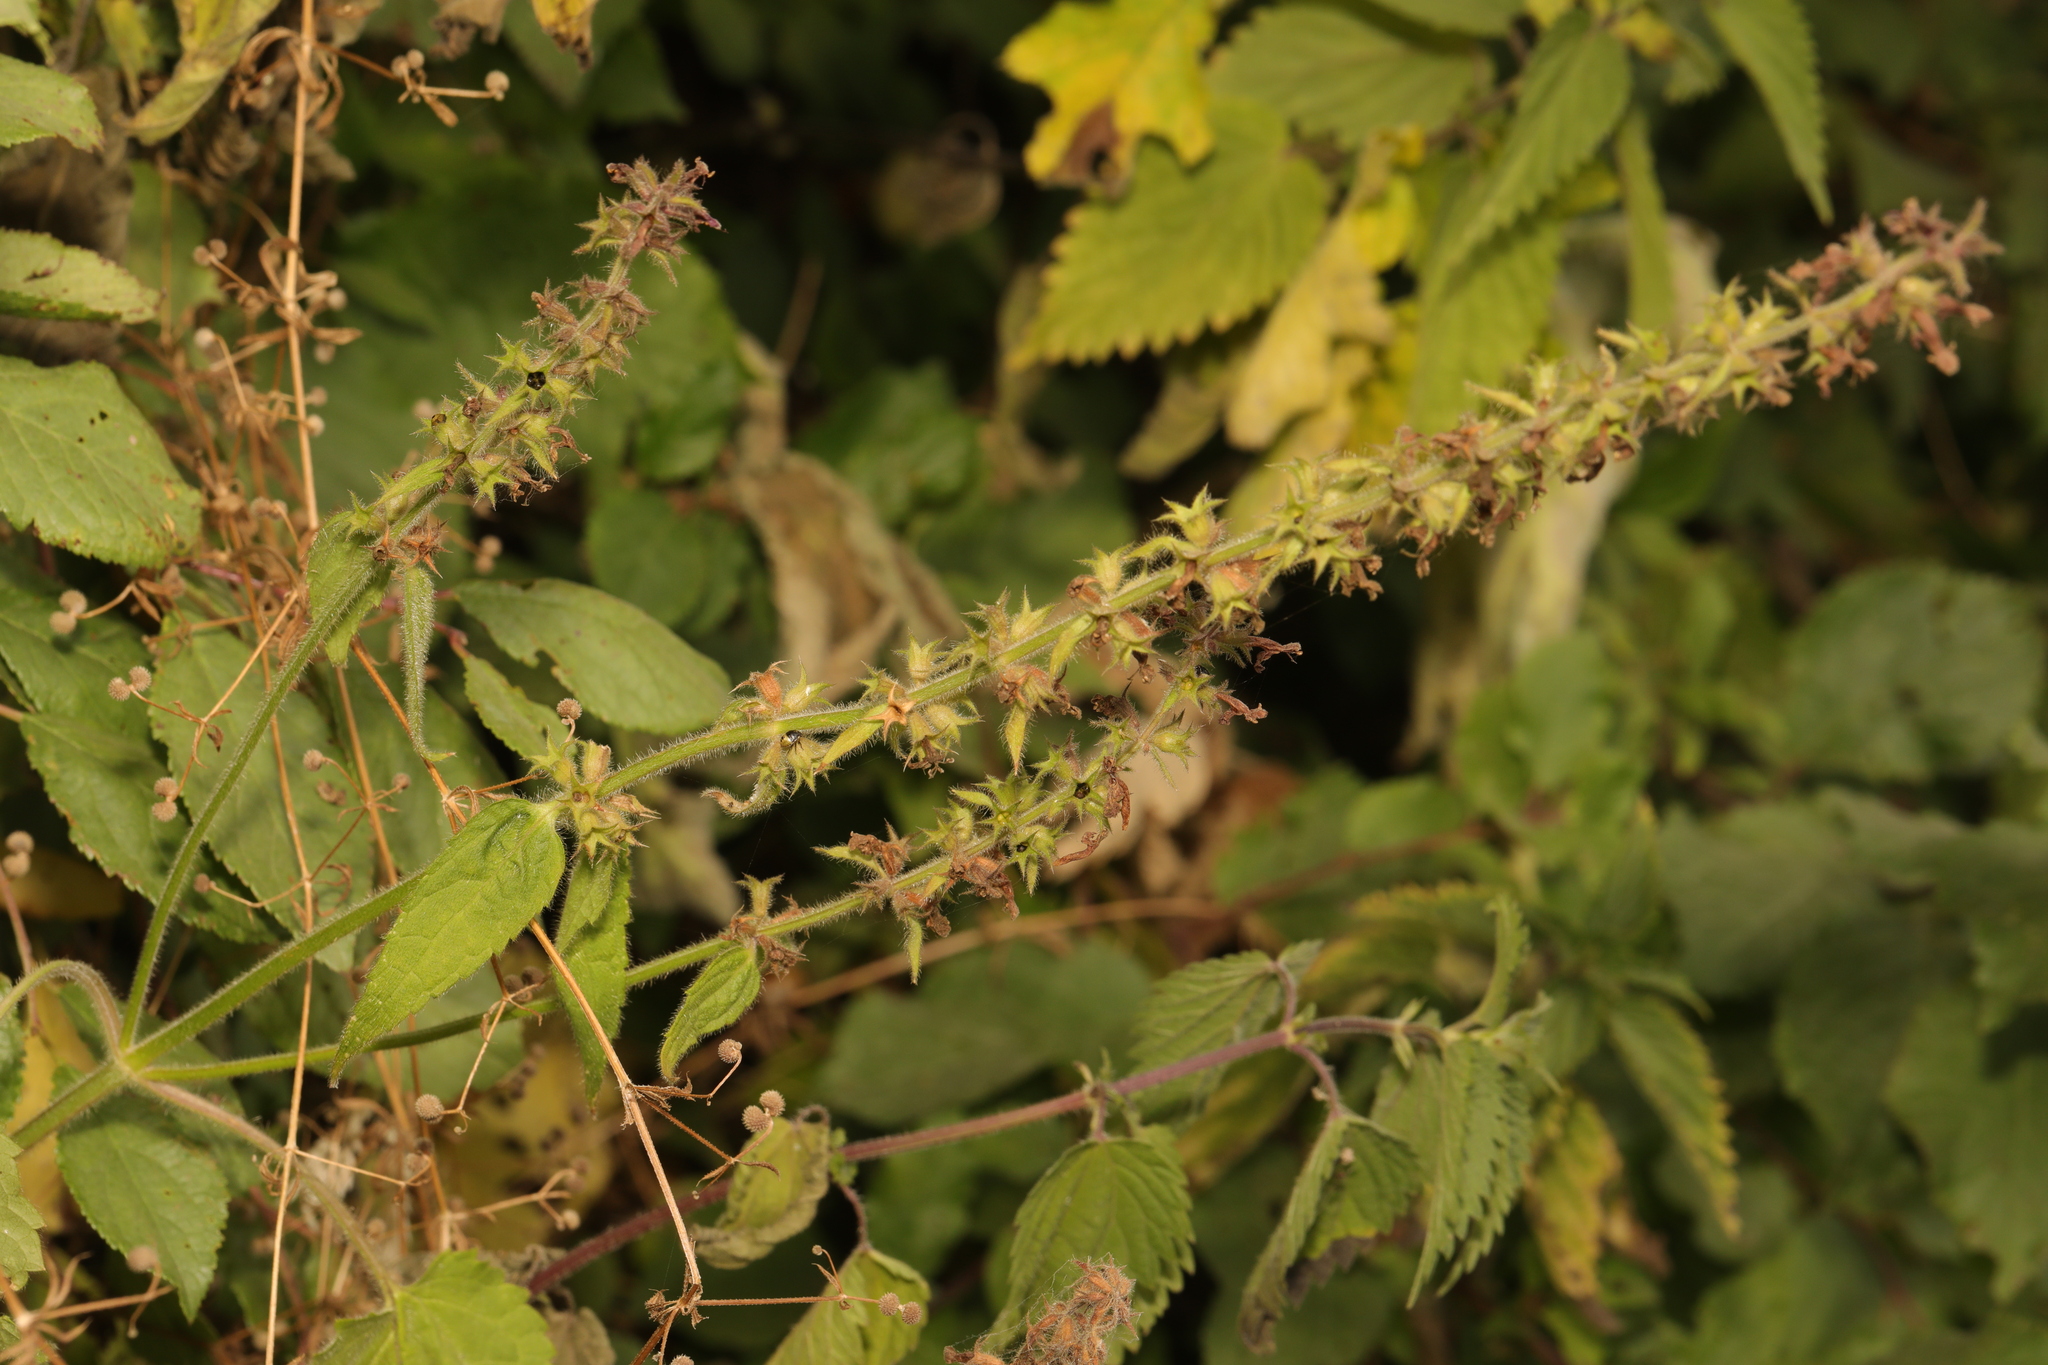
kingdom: Plantae
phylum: Tracheophyta
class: Magnoliopsida
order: Lamiales
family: Lamiaceae
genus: Stachys
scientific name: Stachys sylvatica
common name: Hedge woundwort
